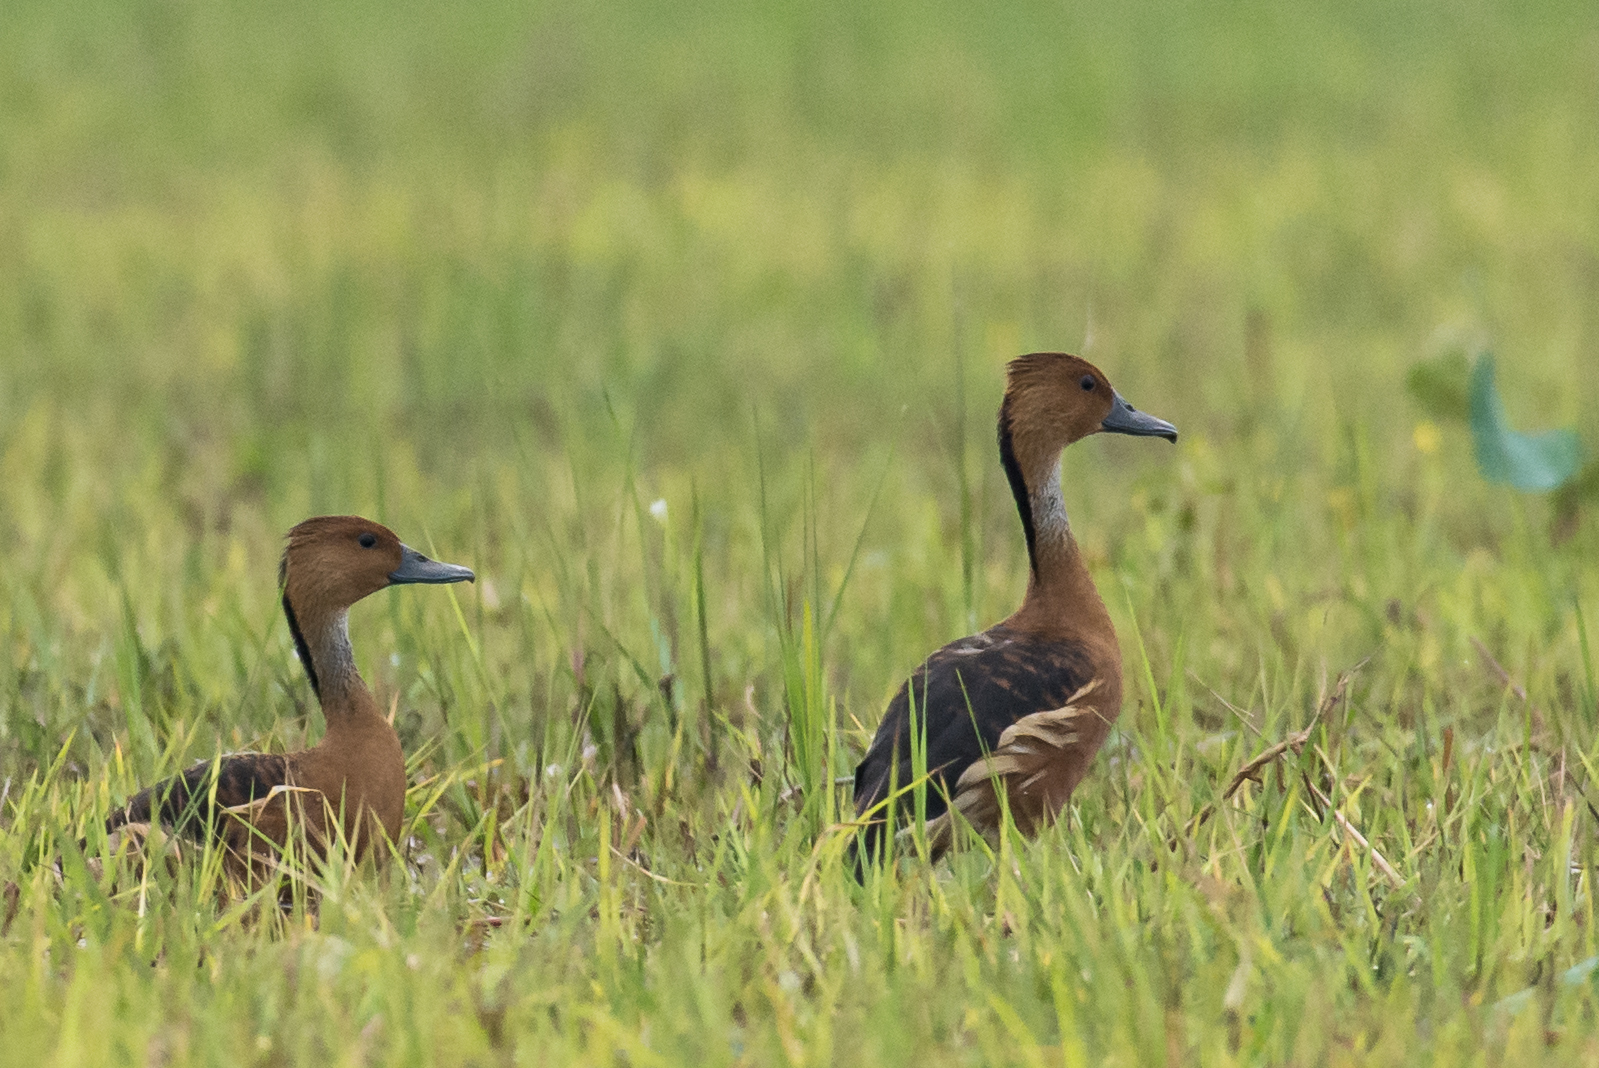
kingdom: Animalia
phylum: Chordata
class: Aves
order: Anseriformes
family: Anatidae
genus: Dendrocygna
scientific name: Dendrocygna bicolor
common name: Fulvous whistling duck
